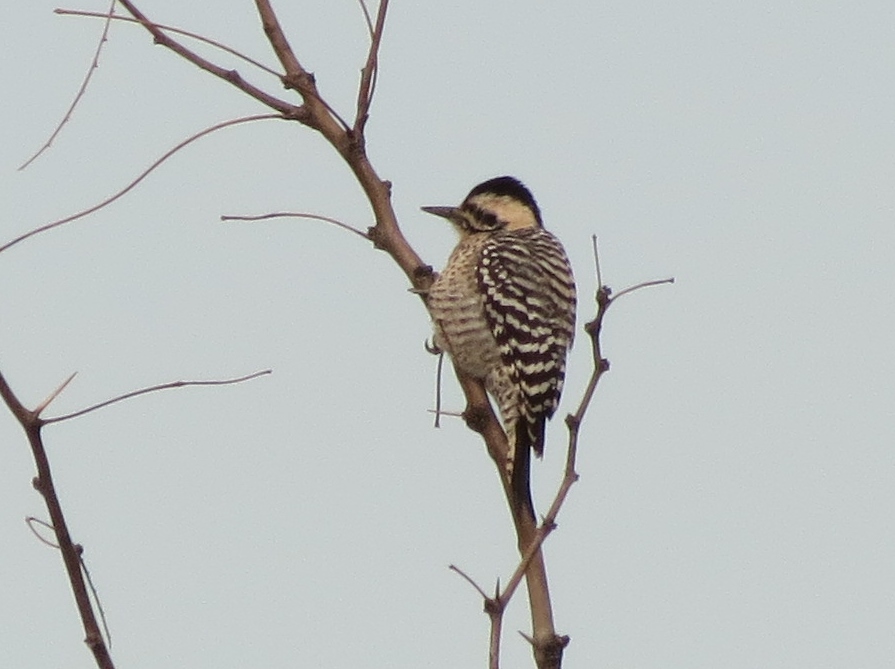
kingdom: Animalia
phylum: Chordata
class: Aves
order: Piciformes
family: Picidae
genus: Dryobates
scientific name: Dryobates scalaris
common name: Ladder-backed woodpecker
